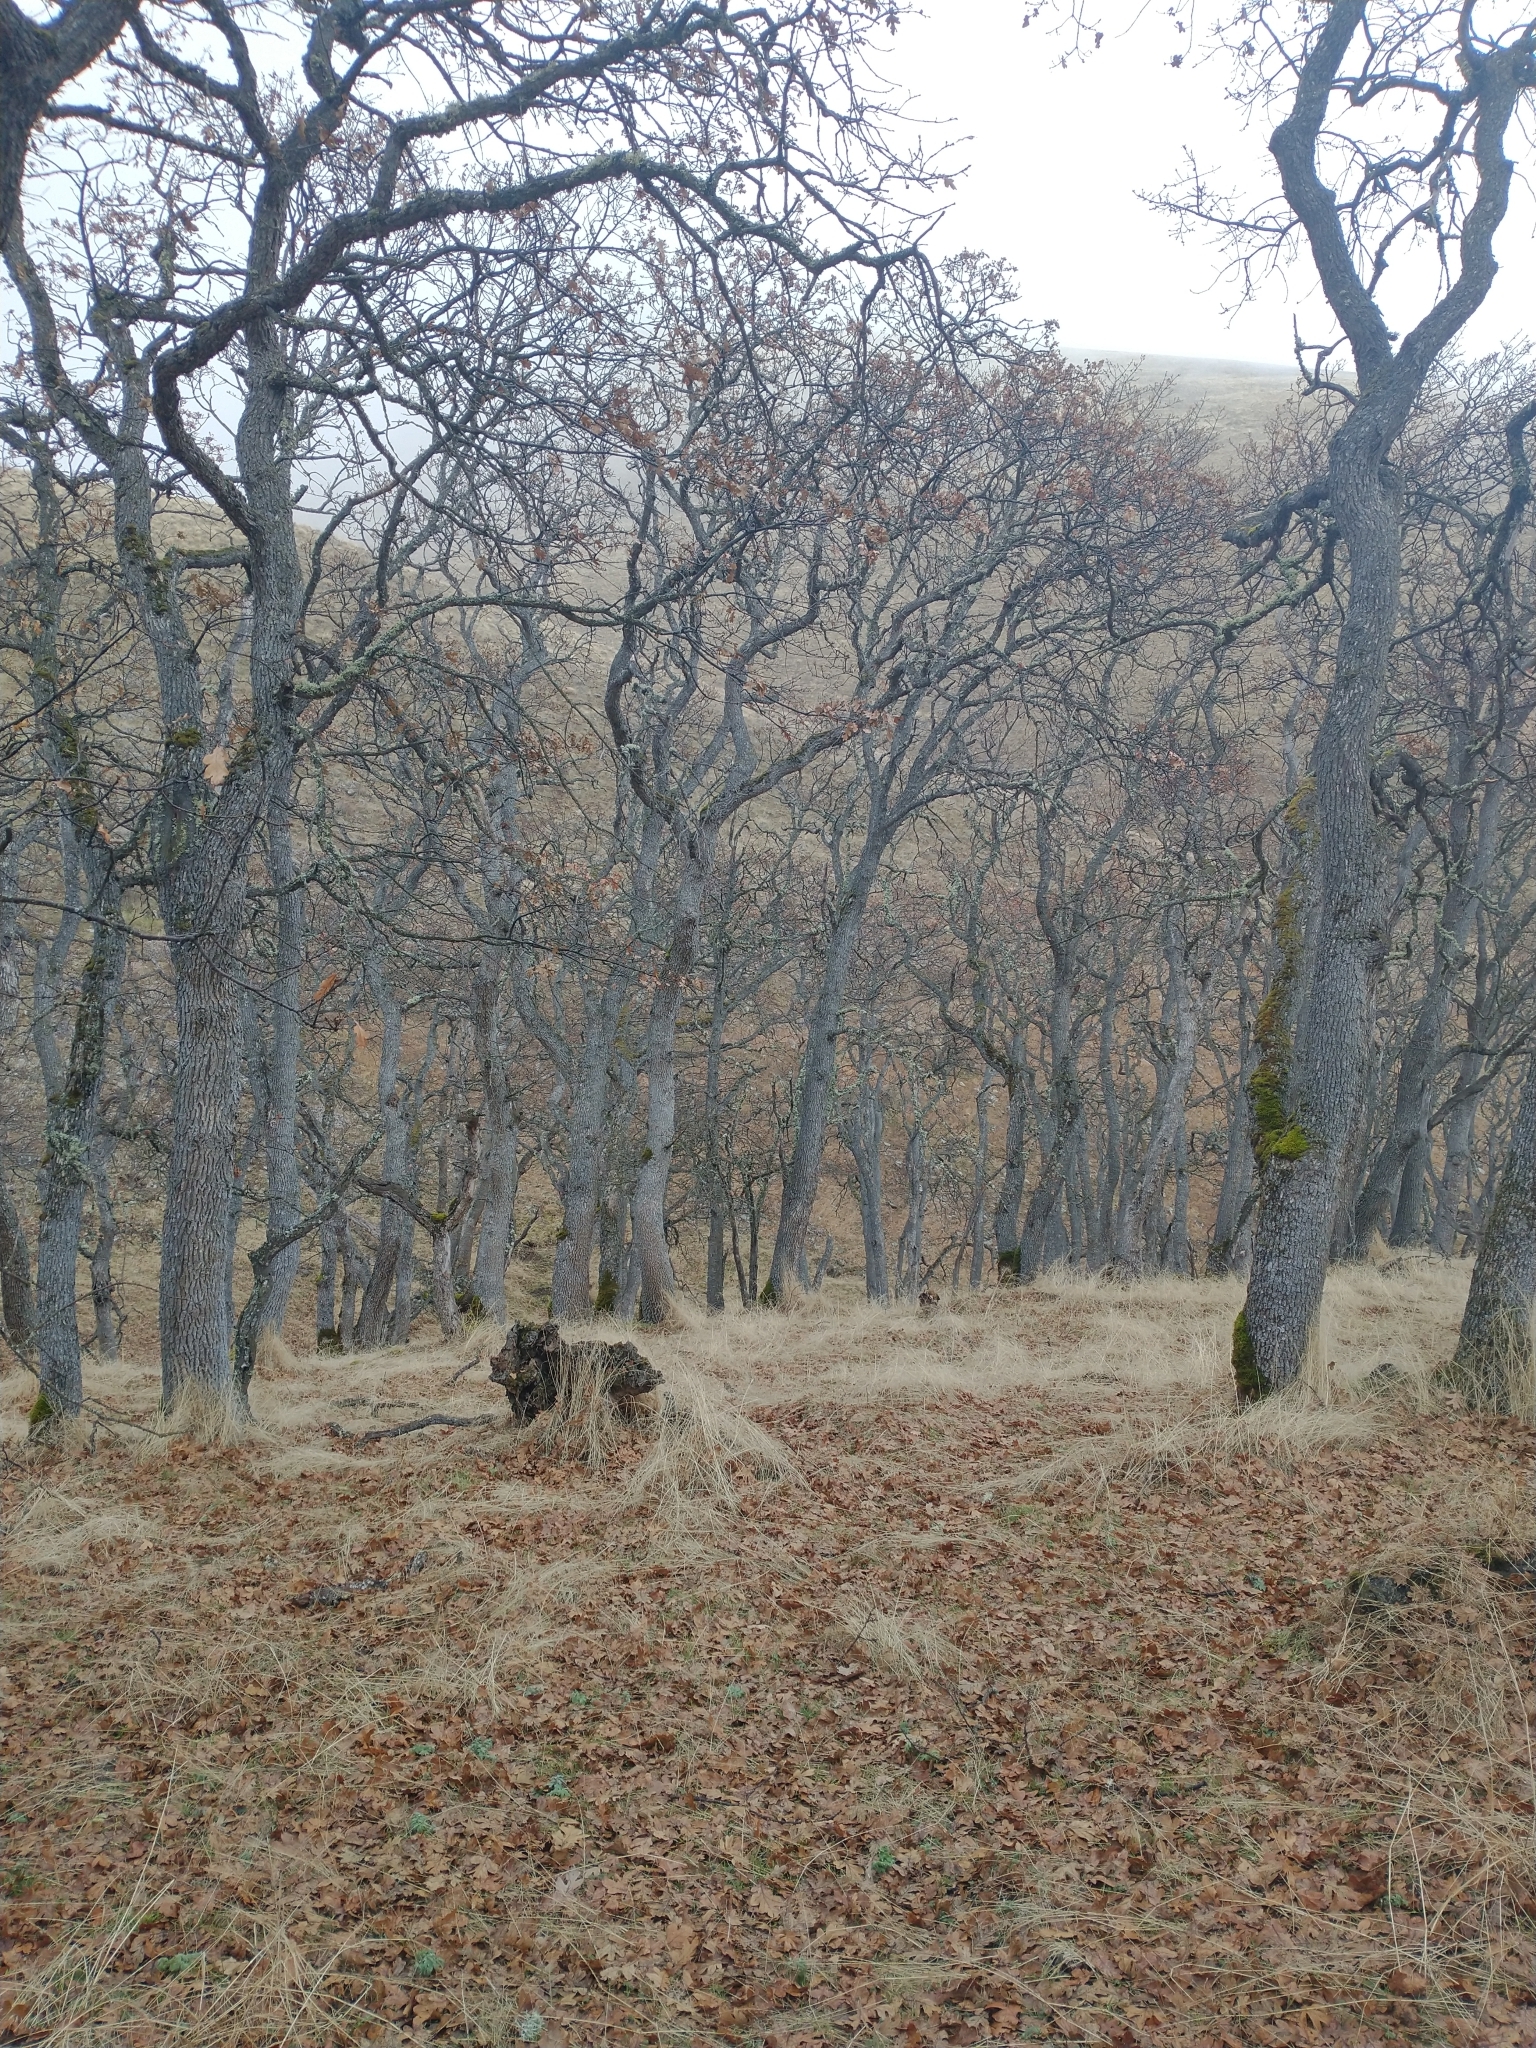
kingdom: Plantae
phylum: Tracheophyta
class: Magnoliopsida
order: Fagales
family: Fagaceae
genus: Quercus
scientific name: Quercus garryana
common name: Garry oak
